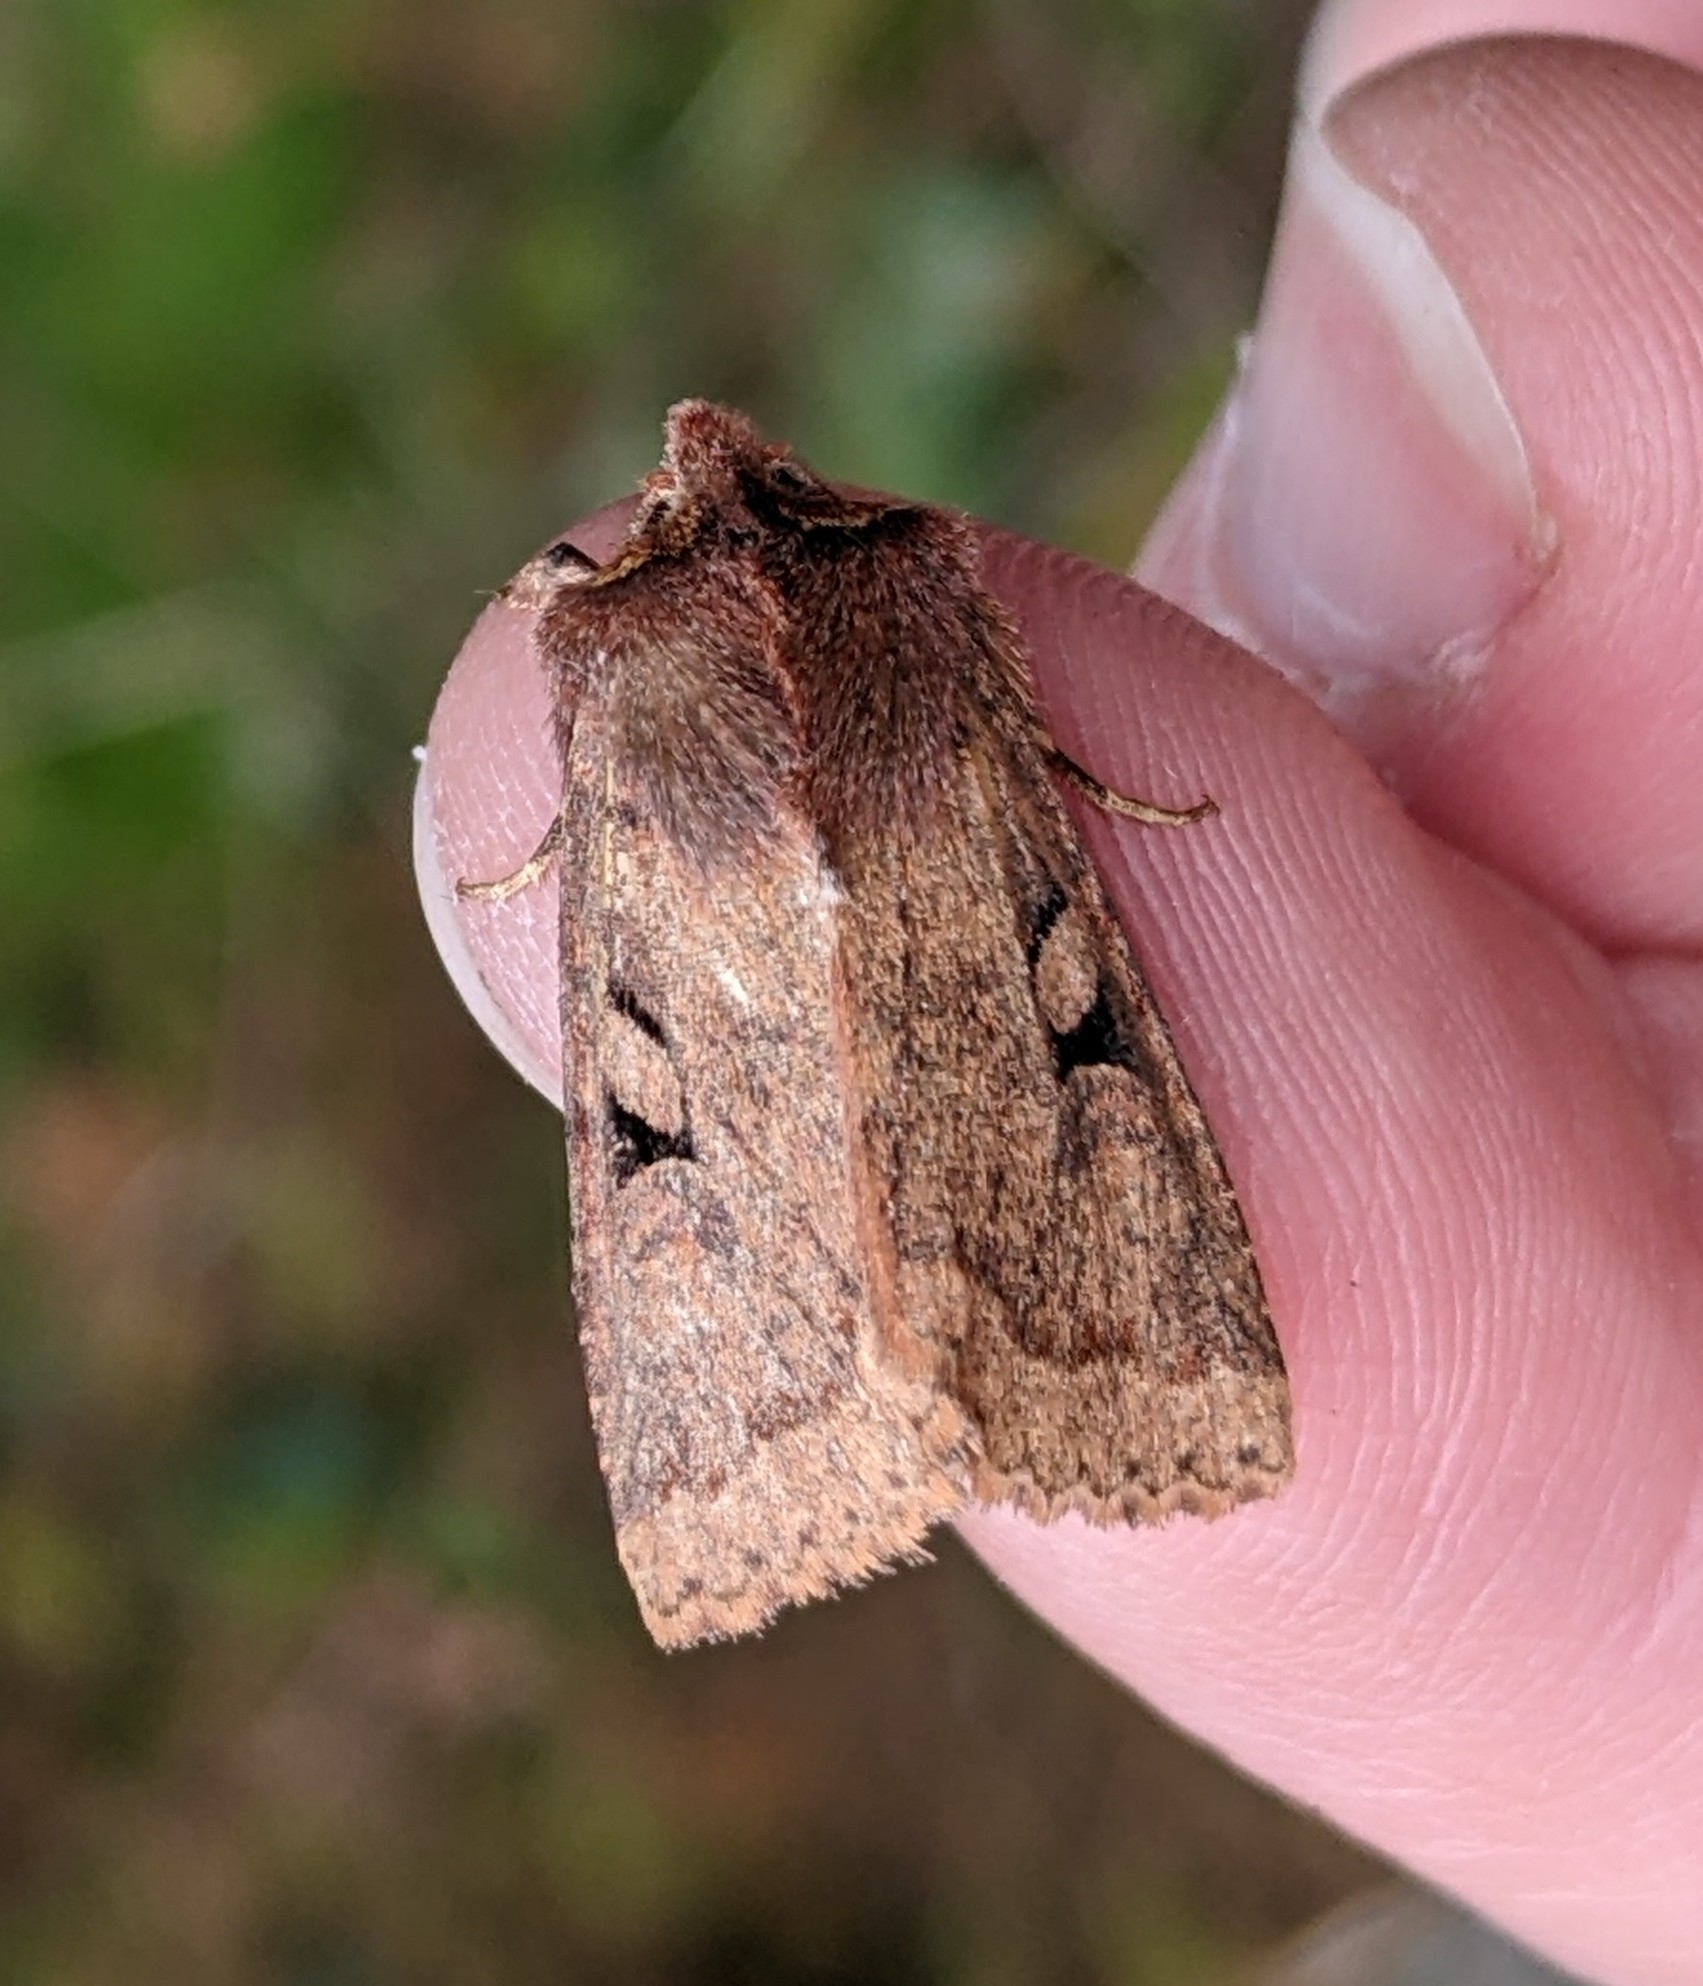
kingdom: Animalia
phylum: Arthropoda
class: Insecta
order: Lepidoptera
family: Noctuidae
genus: Orthosia
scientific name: Orthosia praeses
